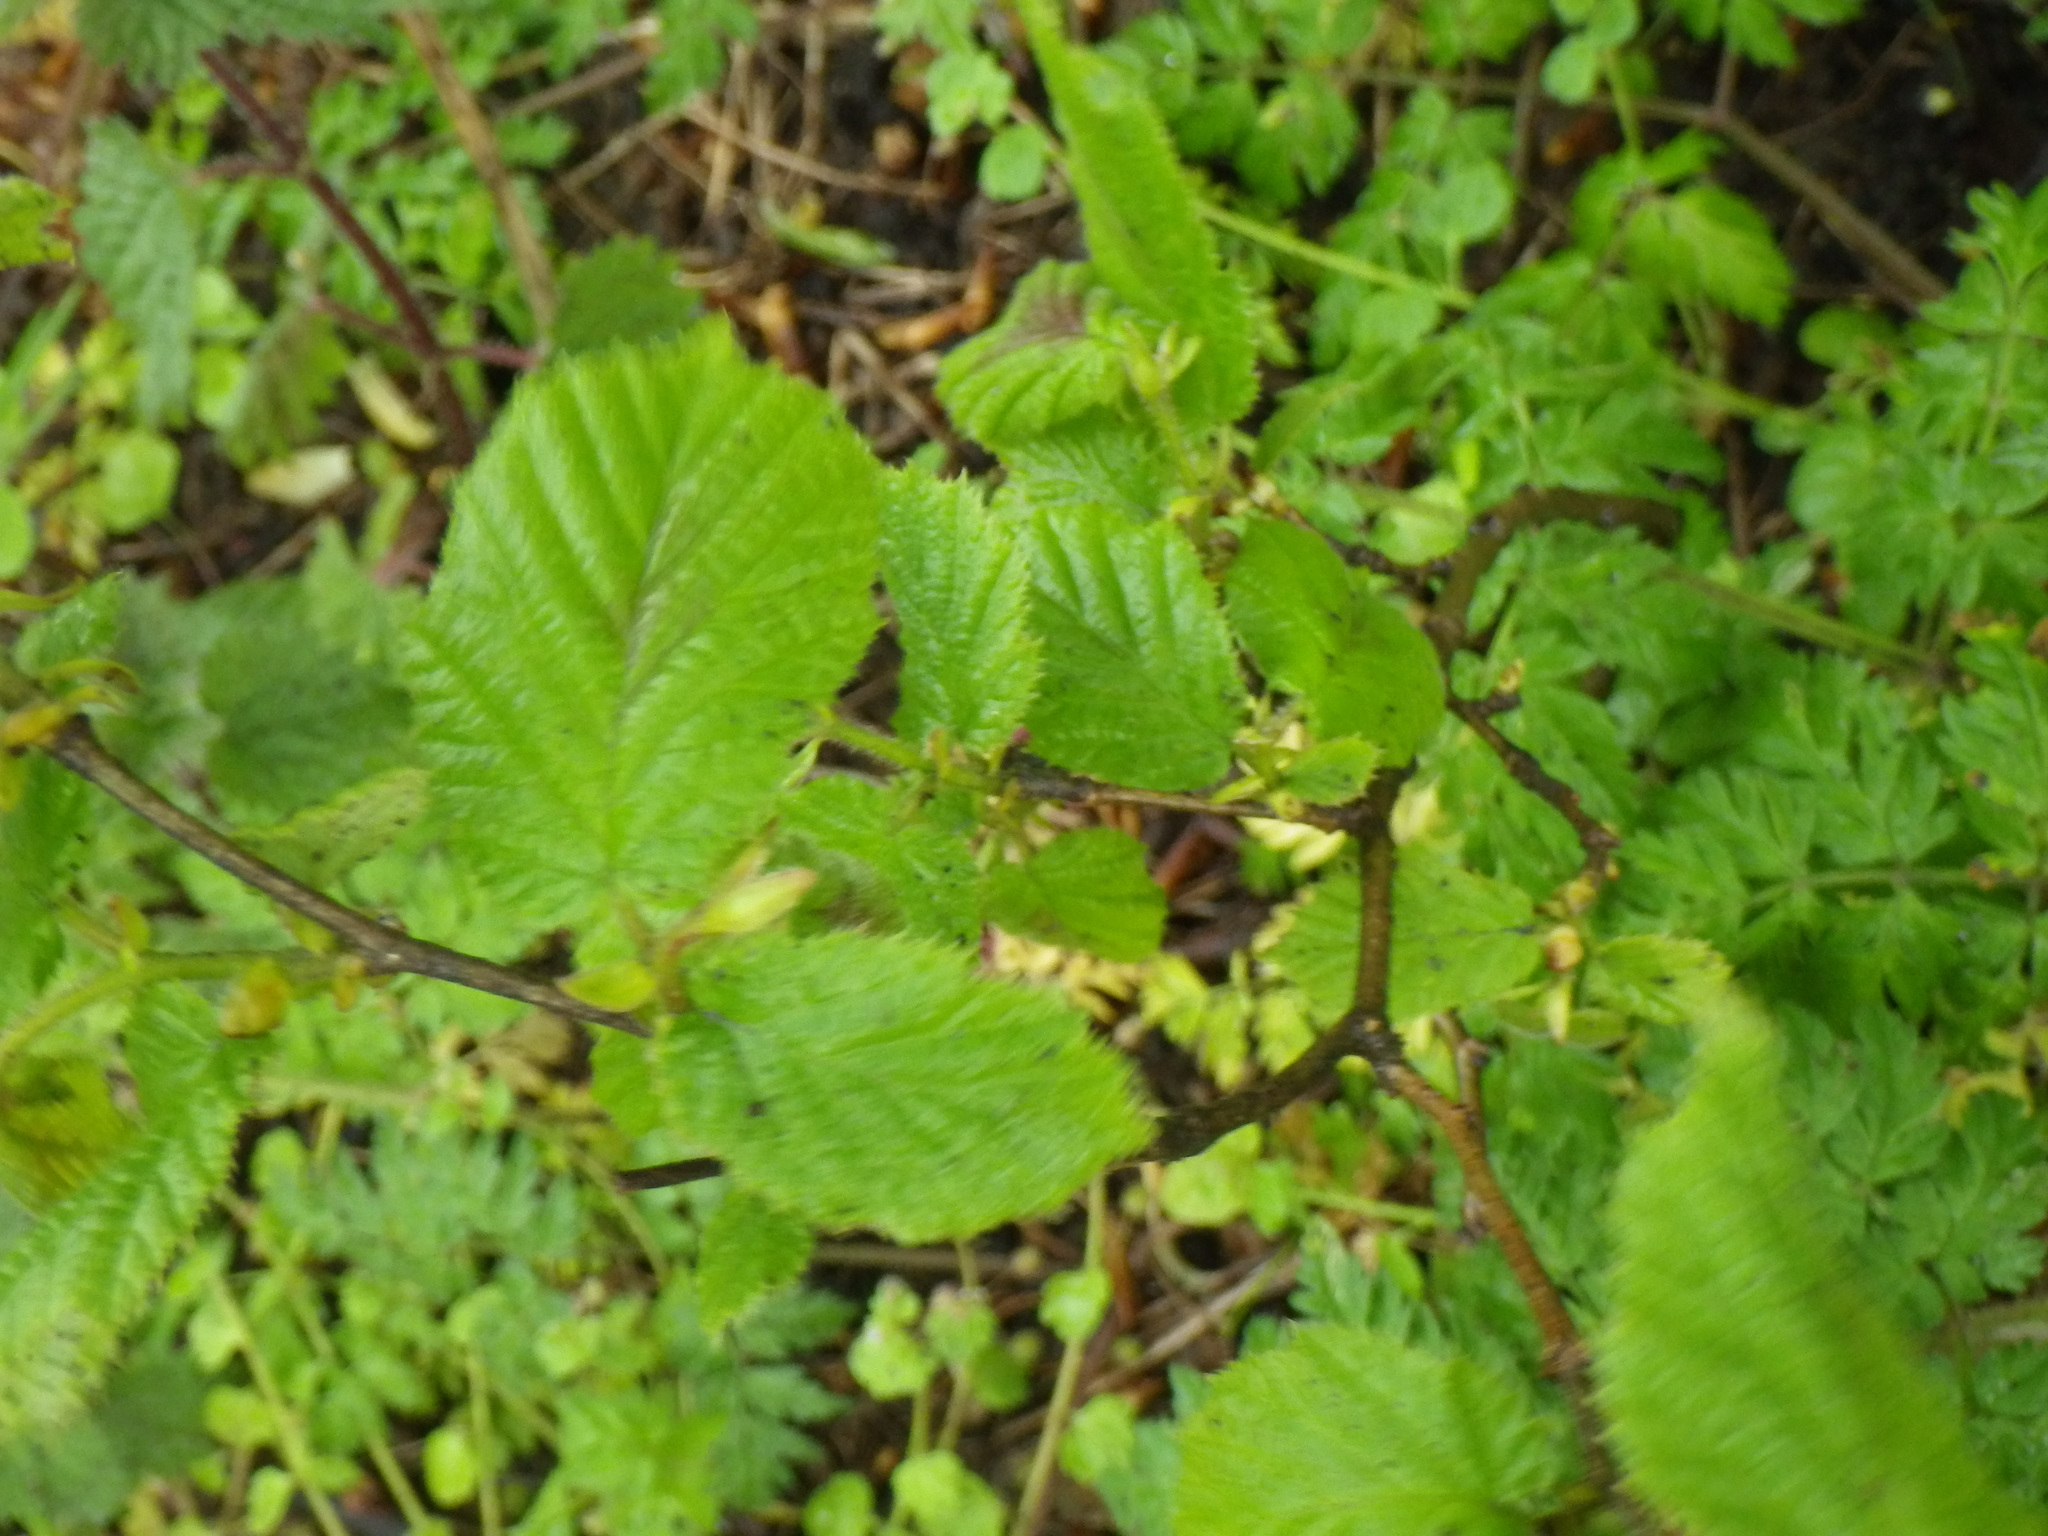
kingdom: Plantae
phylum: Tracheophyta
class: Magnoliopsida
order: Fagales
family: Betulaceae
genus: Corylus
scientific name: Corylus avellana
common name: European hazel
